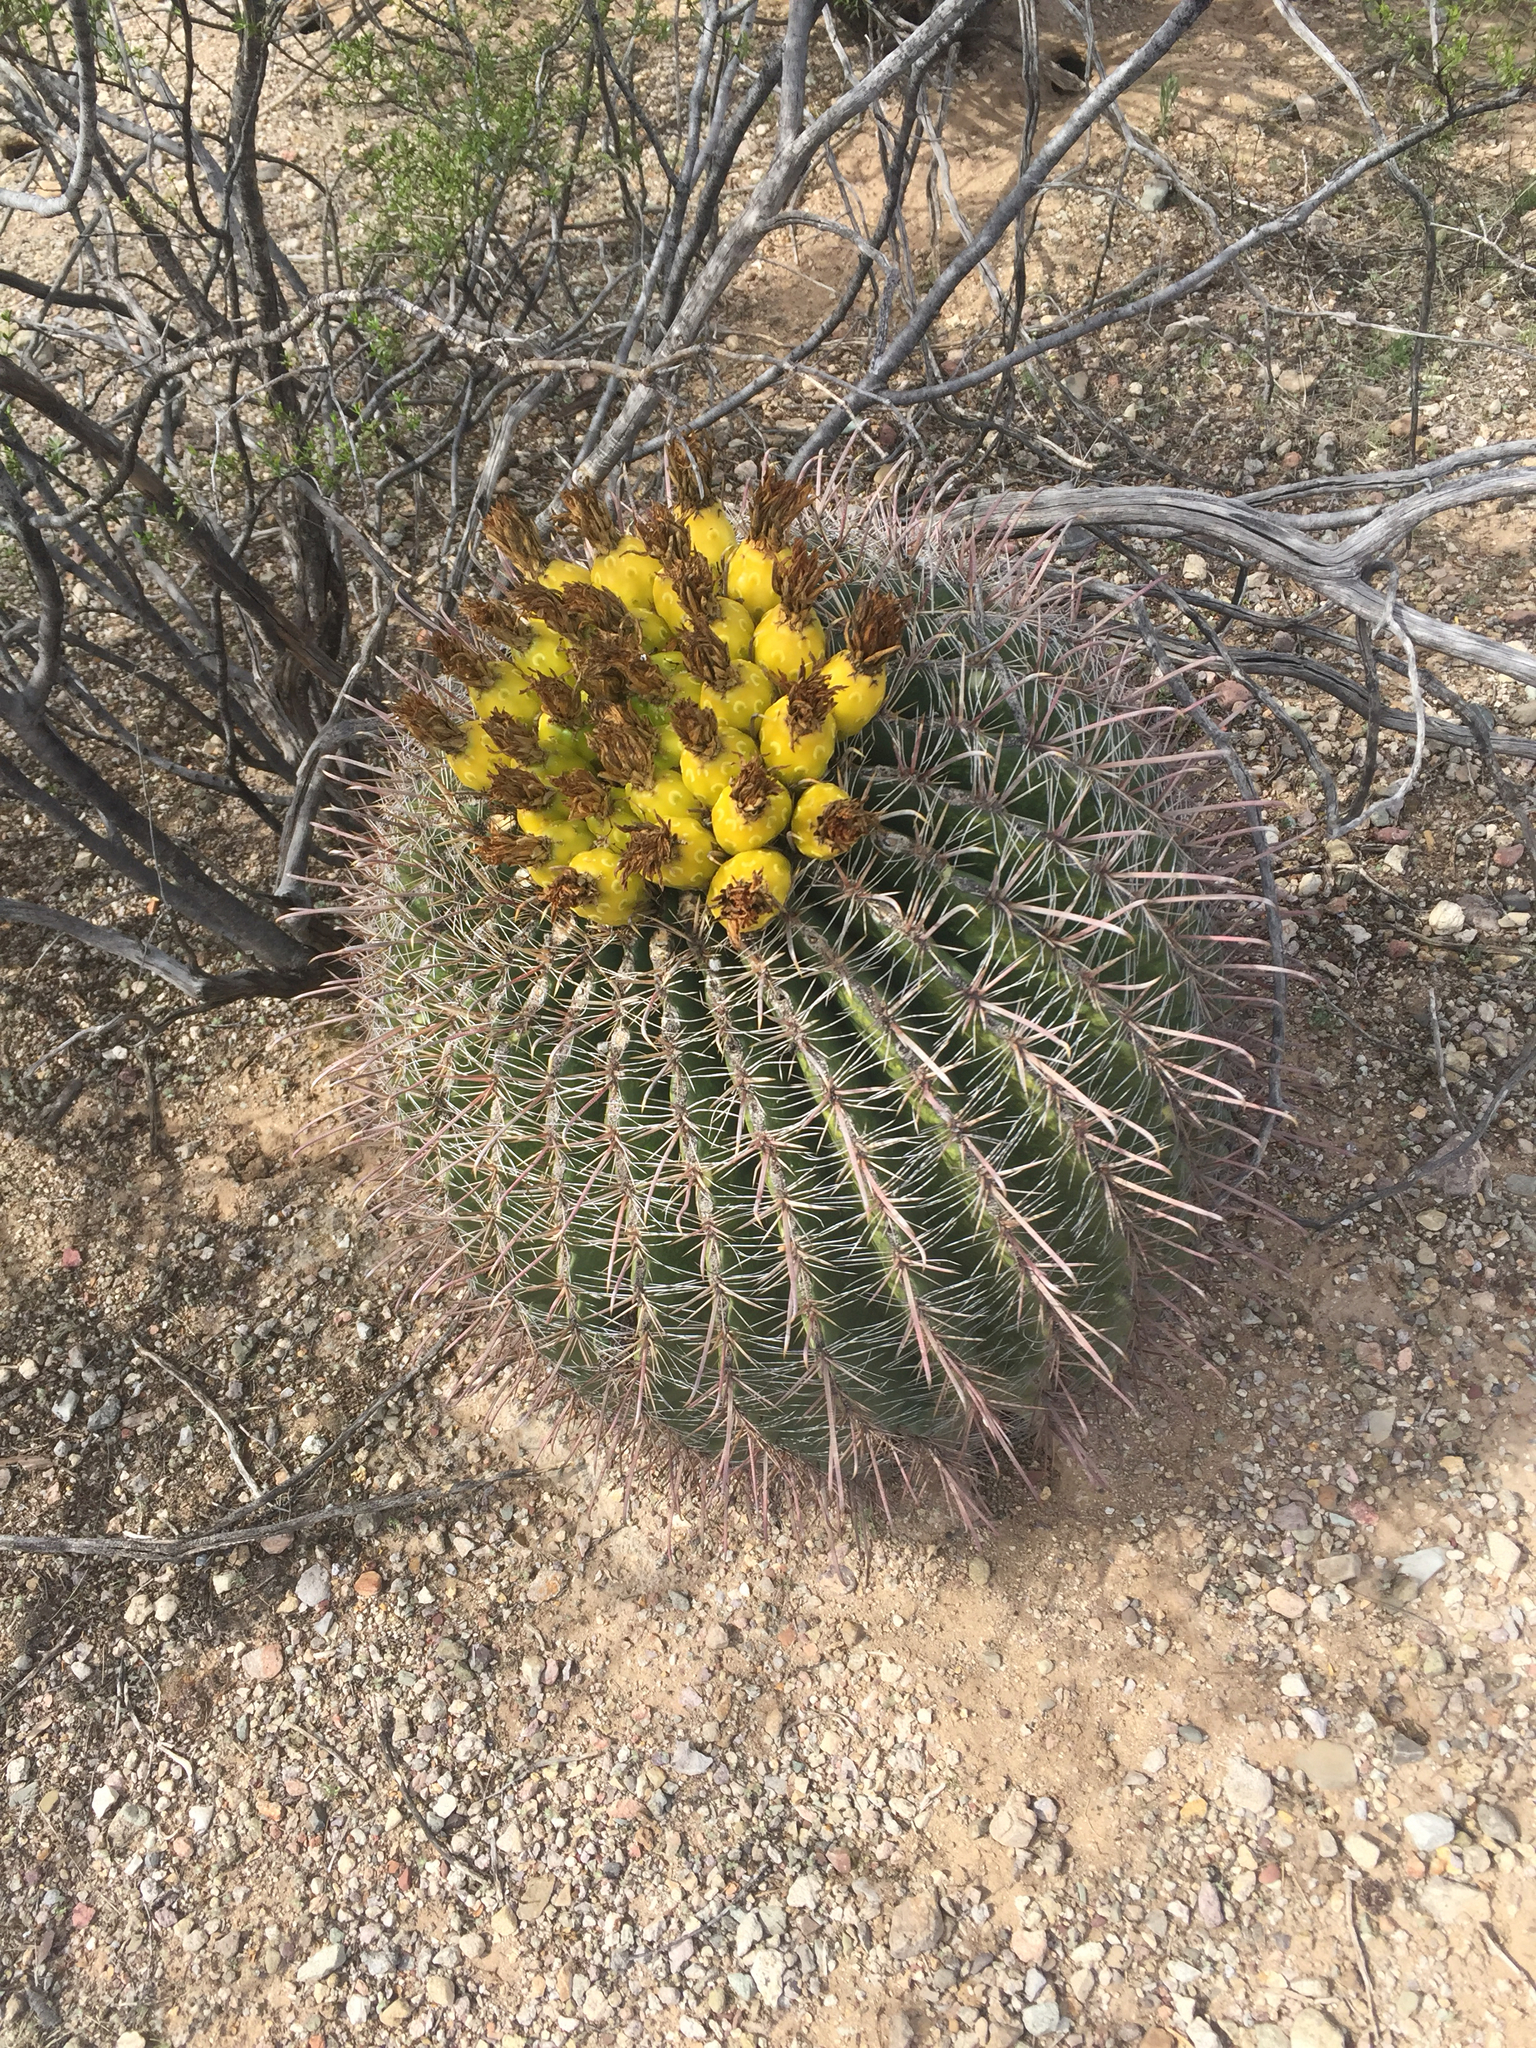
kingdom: Plantae
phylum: Tracheophyta
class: Magnoliopsida
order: Caryophyllales
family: Cactaceae
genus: Ferocactus
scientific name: Ferocactus wislizeni
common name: Candy barrel cactus
